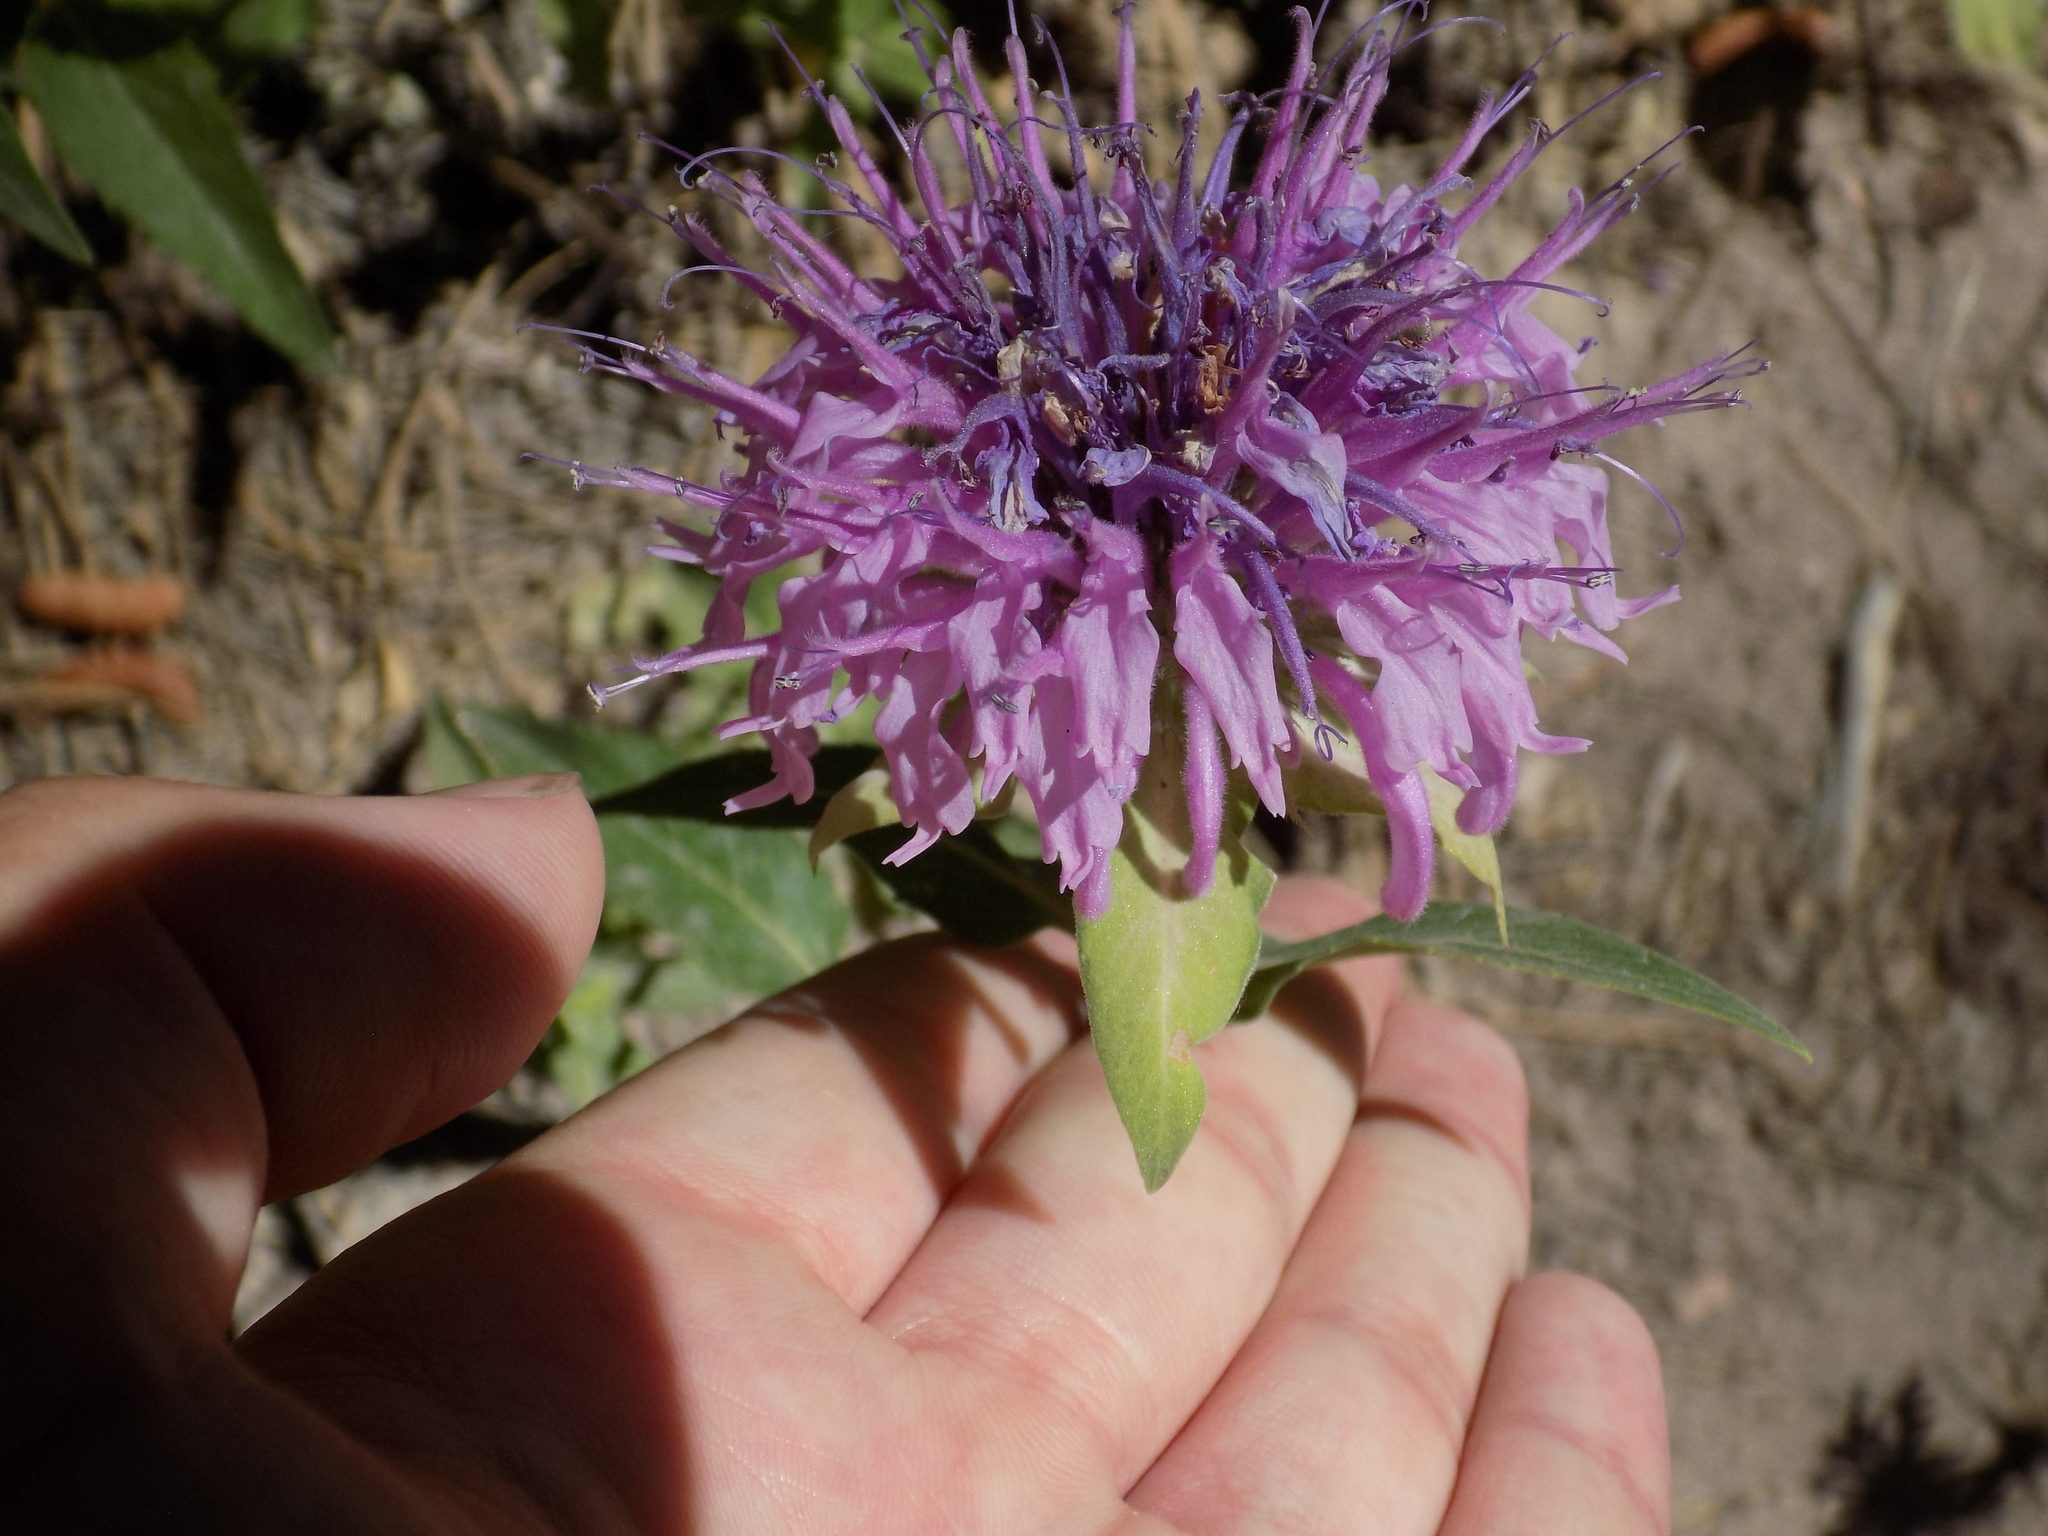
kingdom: Plantae
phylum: Tracheophyta
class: Magnoliopsida
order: Lamiales
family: Lamiaceae
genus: Monarda
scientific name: Monarda fistulosa
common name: Purple beebalm
